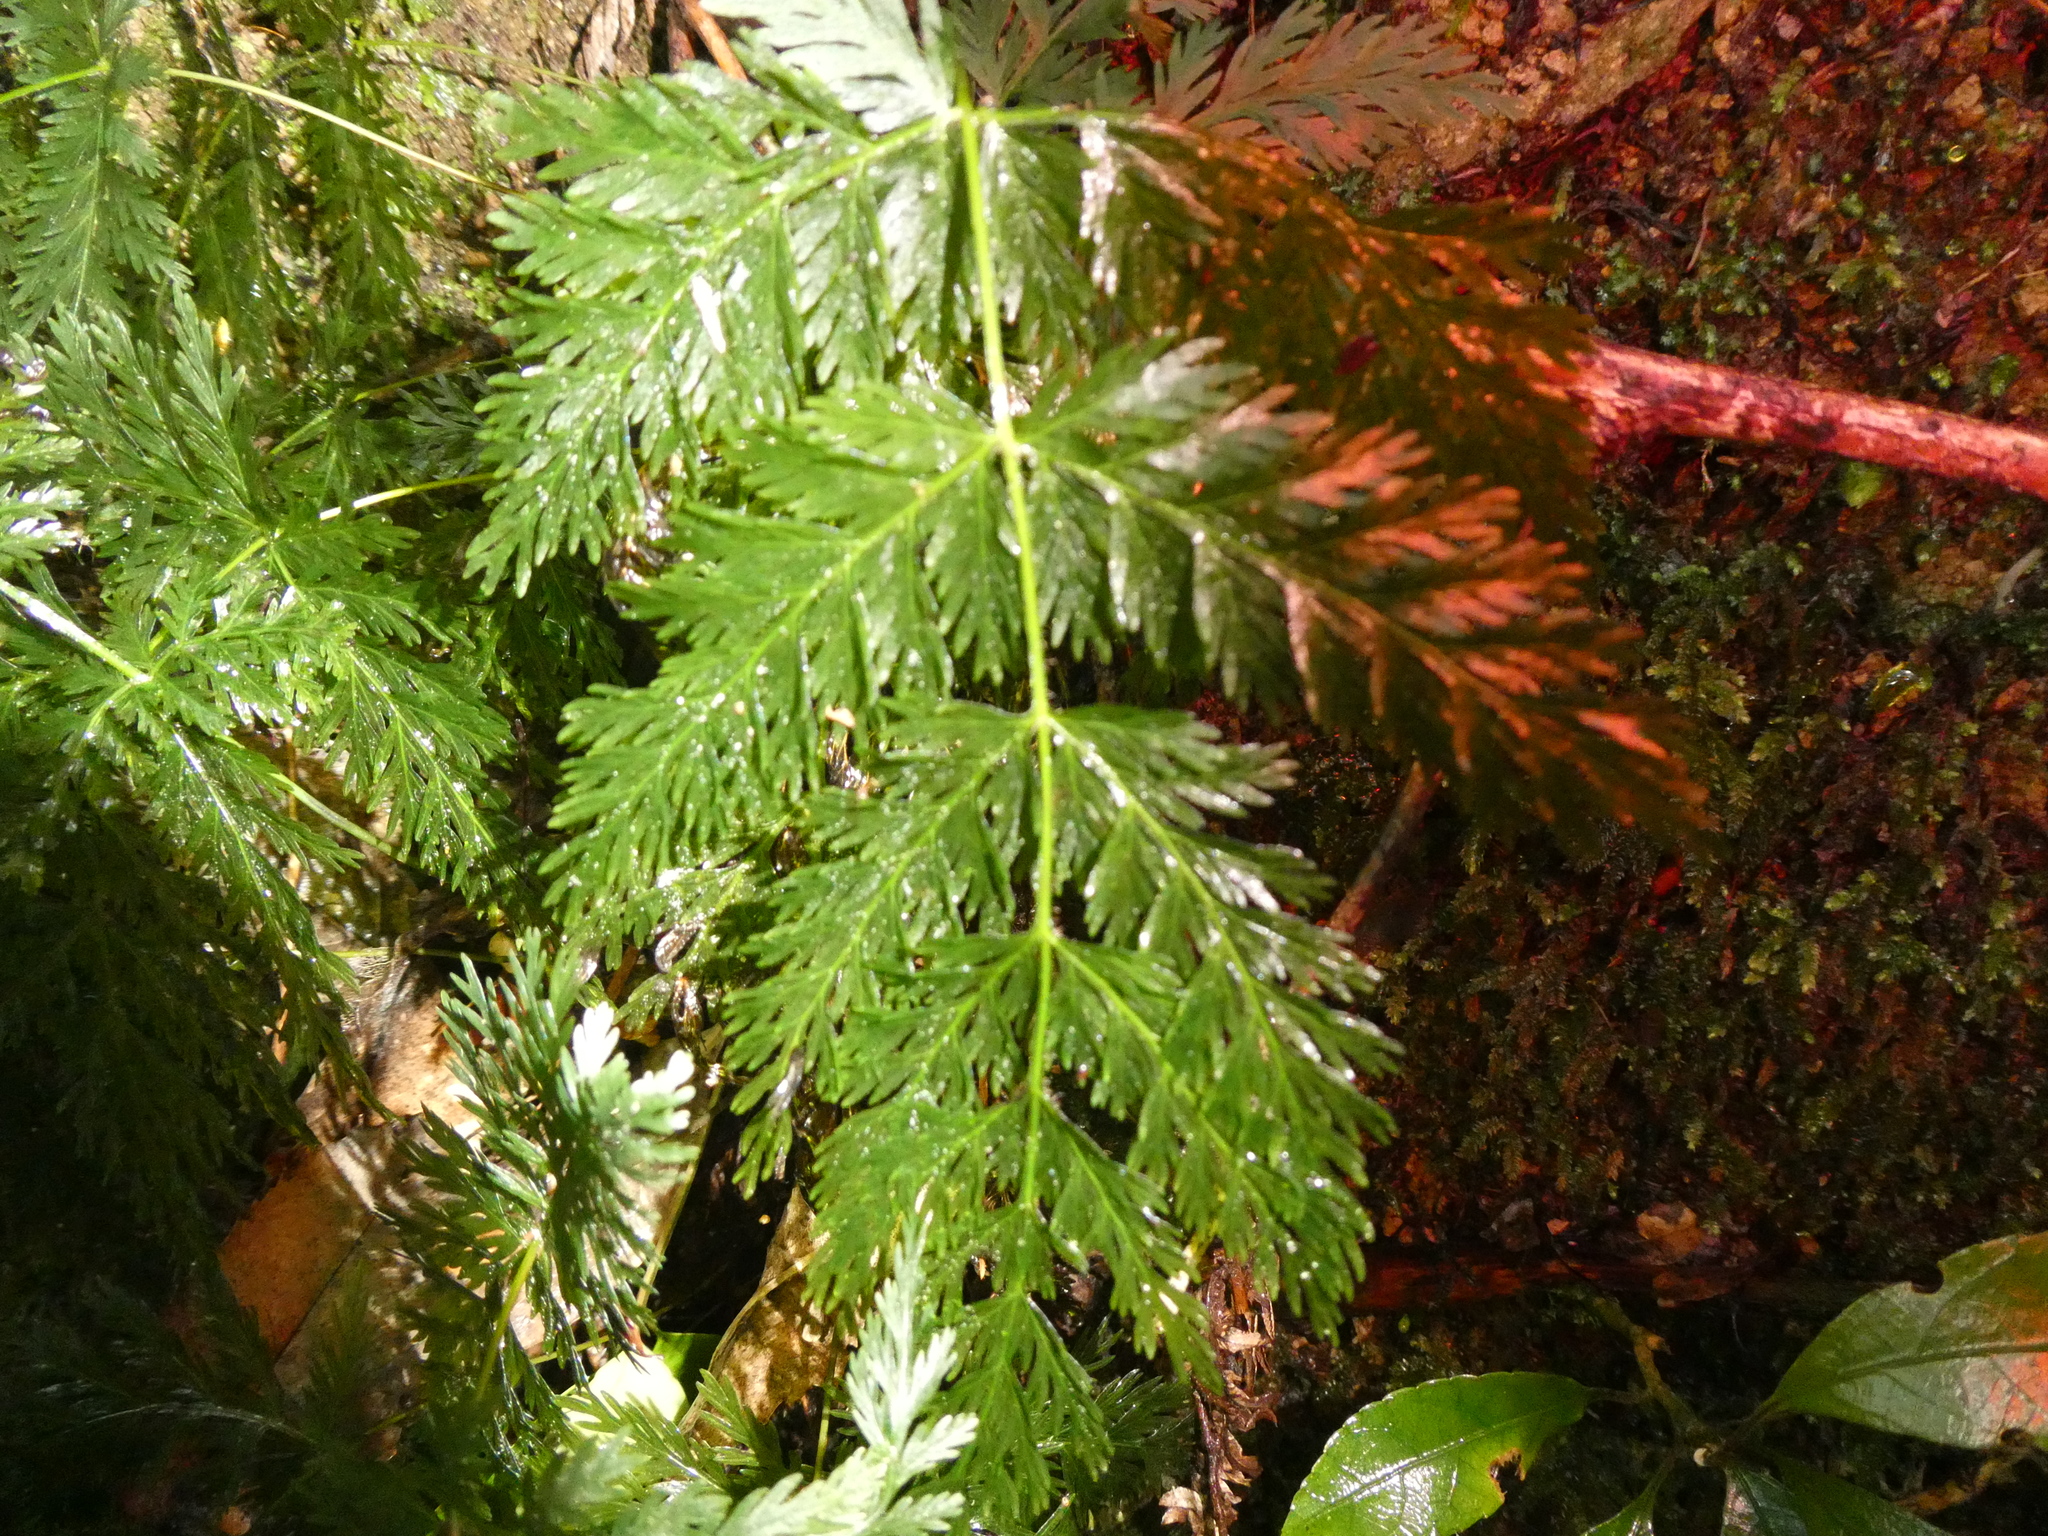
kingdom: Plantae
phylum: Tracheophyta
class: Polypodiopsida
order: Osmundales
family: Osmundaceae
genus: Leptopteris
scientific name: Leptopteris hymenophylloides
